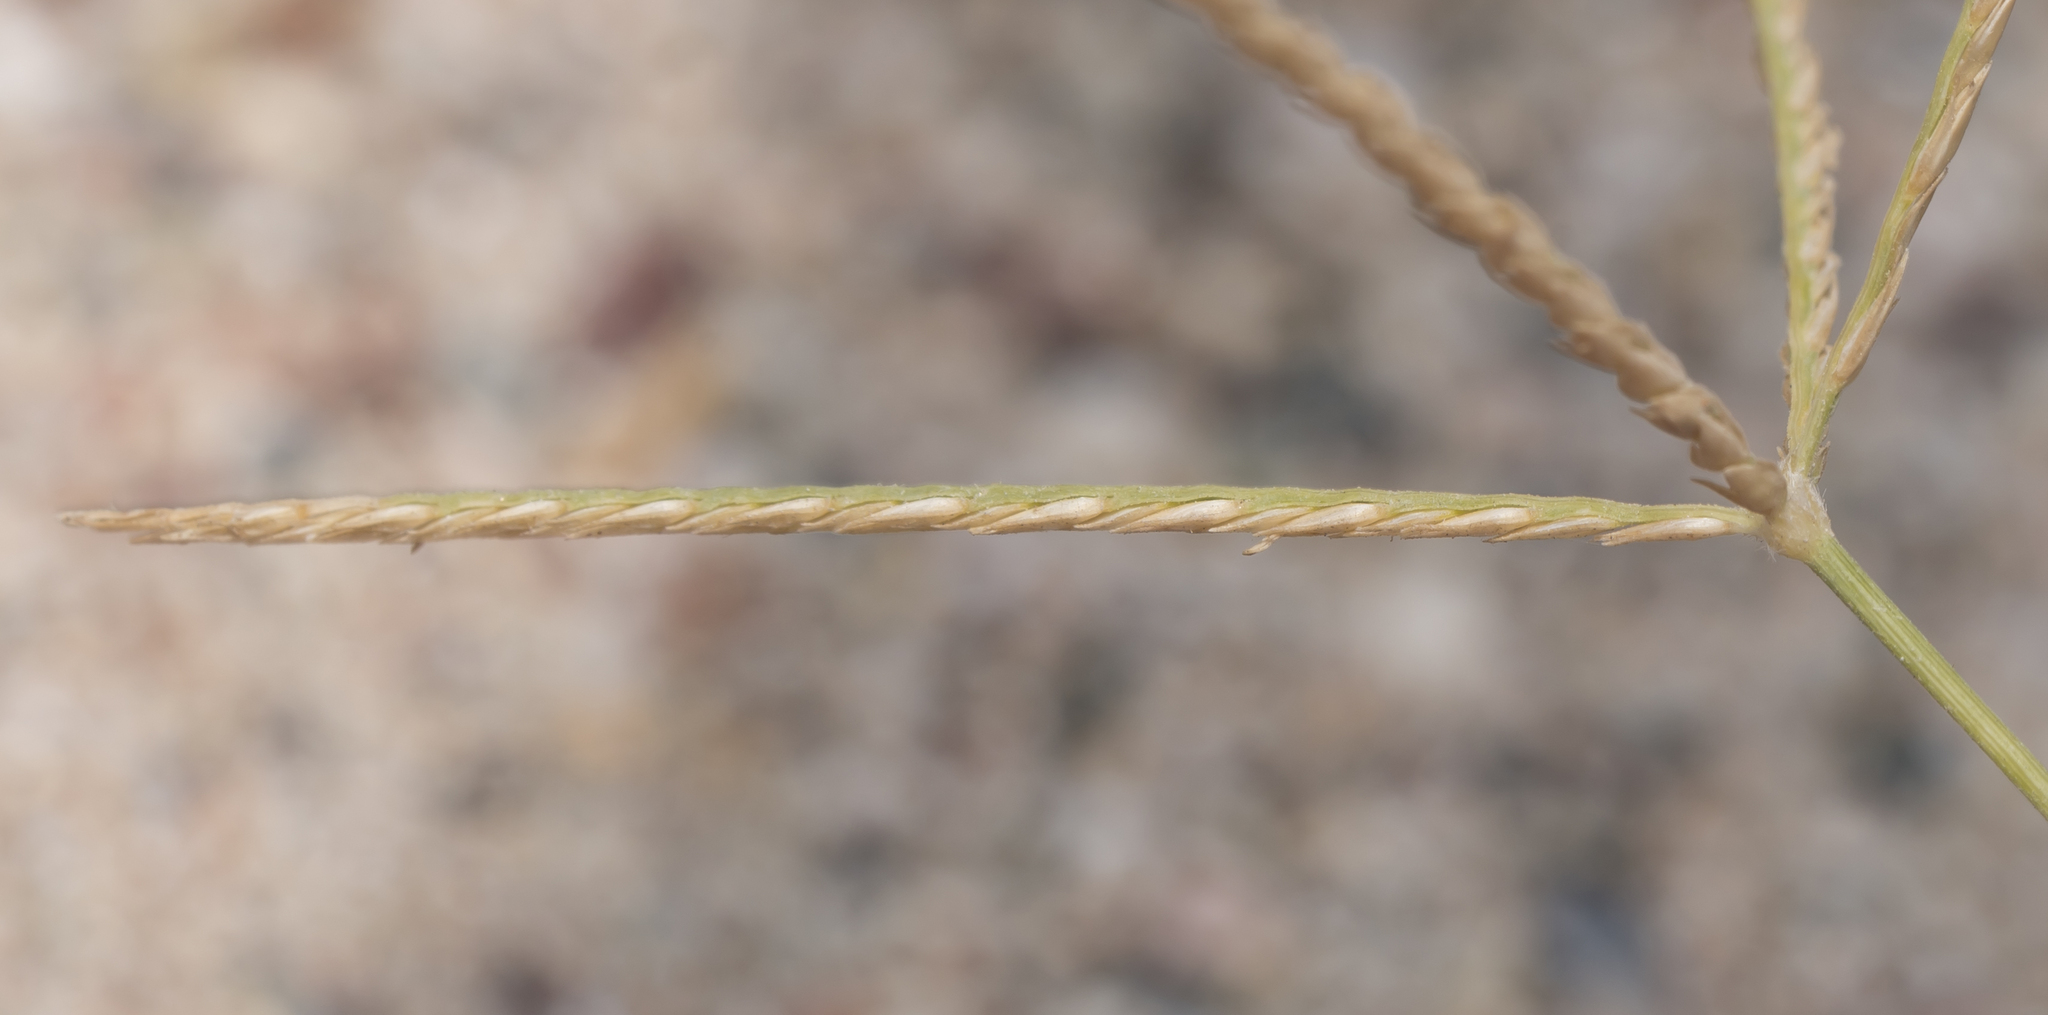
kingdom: Plantae
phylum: Tracheophyta
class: Liliopsida
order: Poales
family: Poaceae
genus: Cynodon
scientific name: Cynodon dactylon
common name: Bermuda grass
